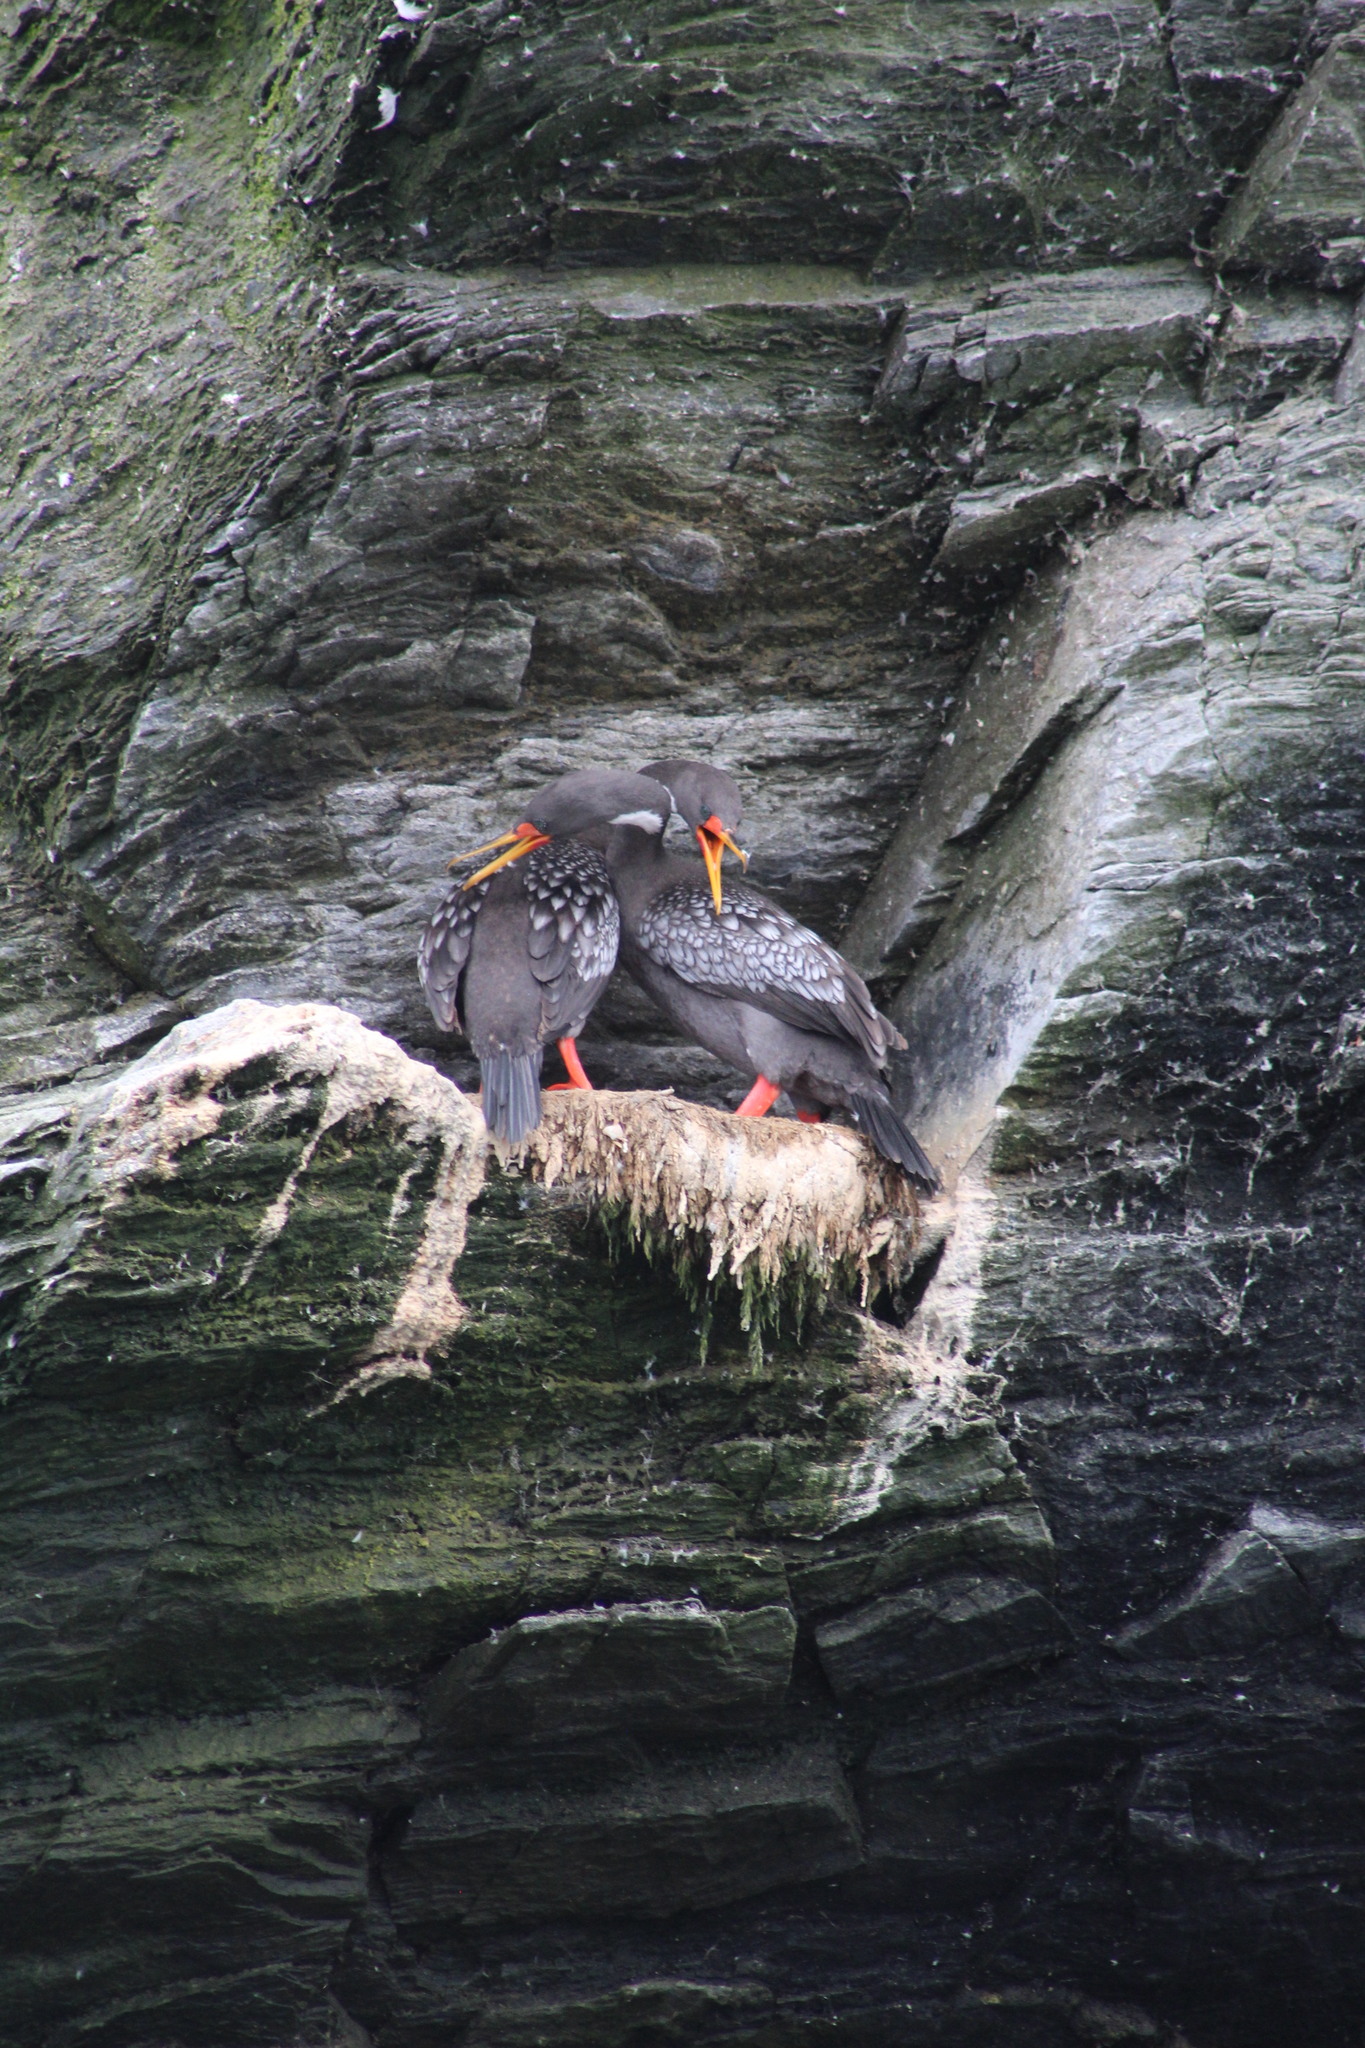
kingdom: Animalia
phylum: Chordata
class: Aves
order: Suliformes
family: Phalacrocoracidae
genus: Phalacrocorax
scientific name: Phalacrocorax gaimardi
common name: Red-legged cormorant
